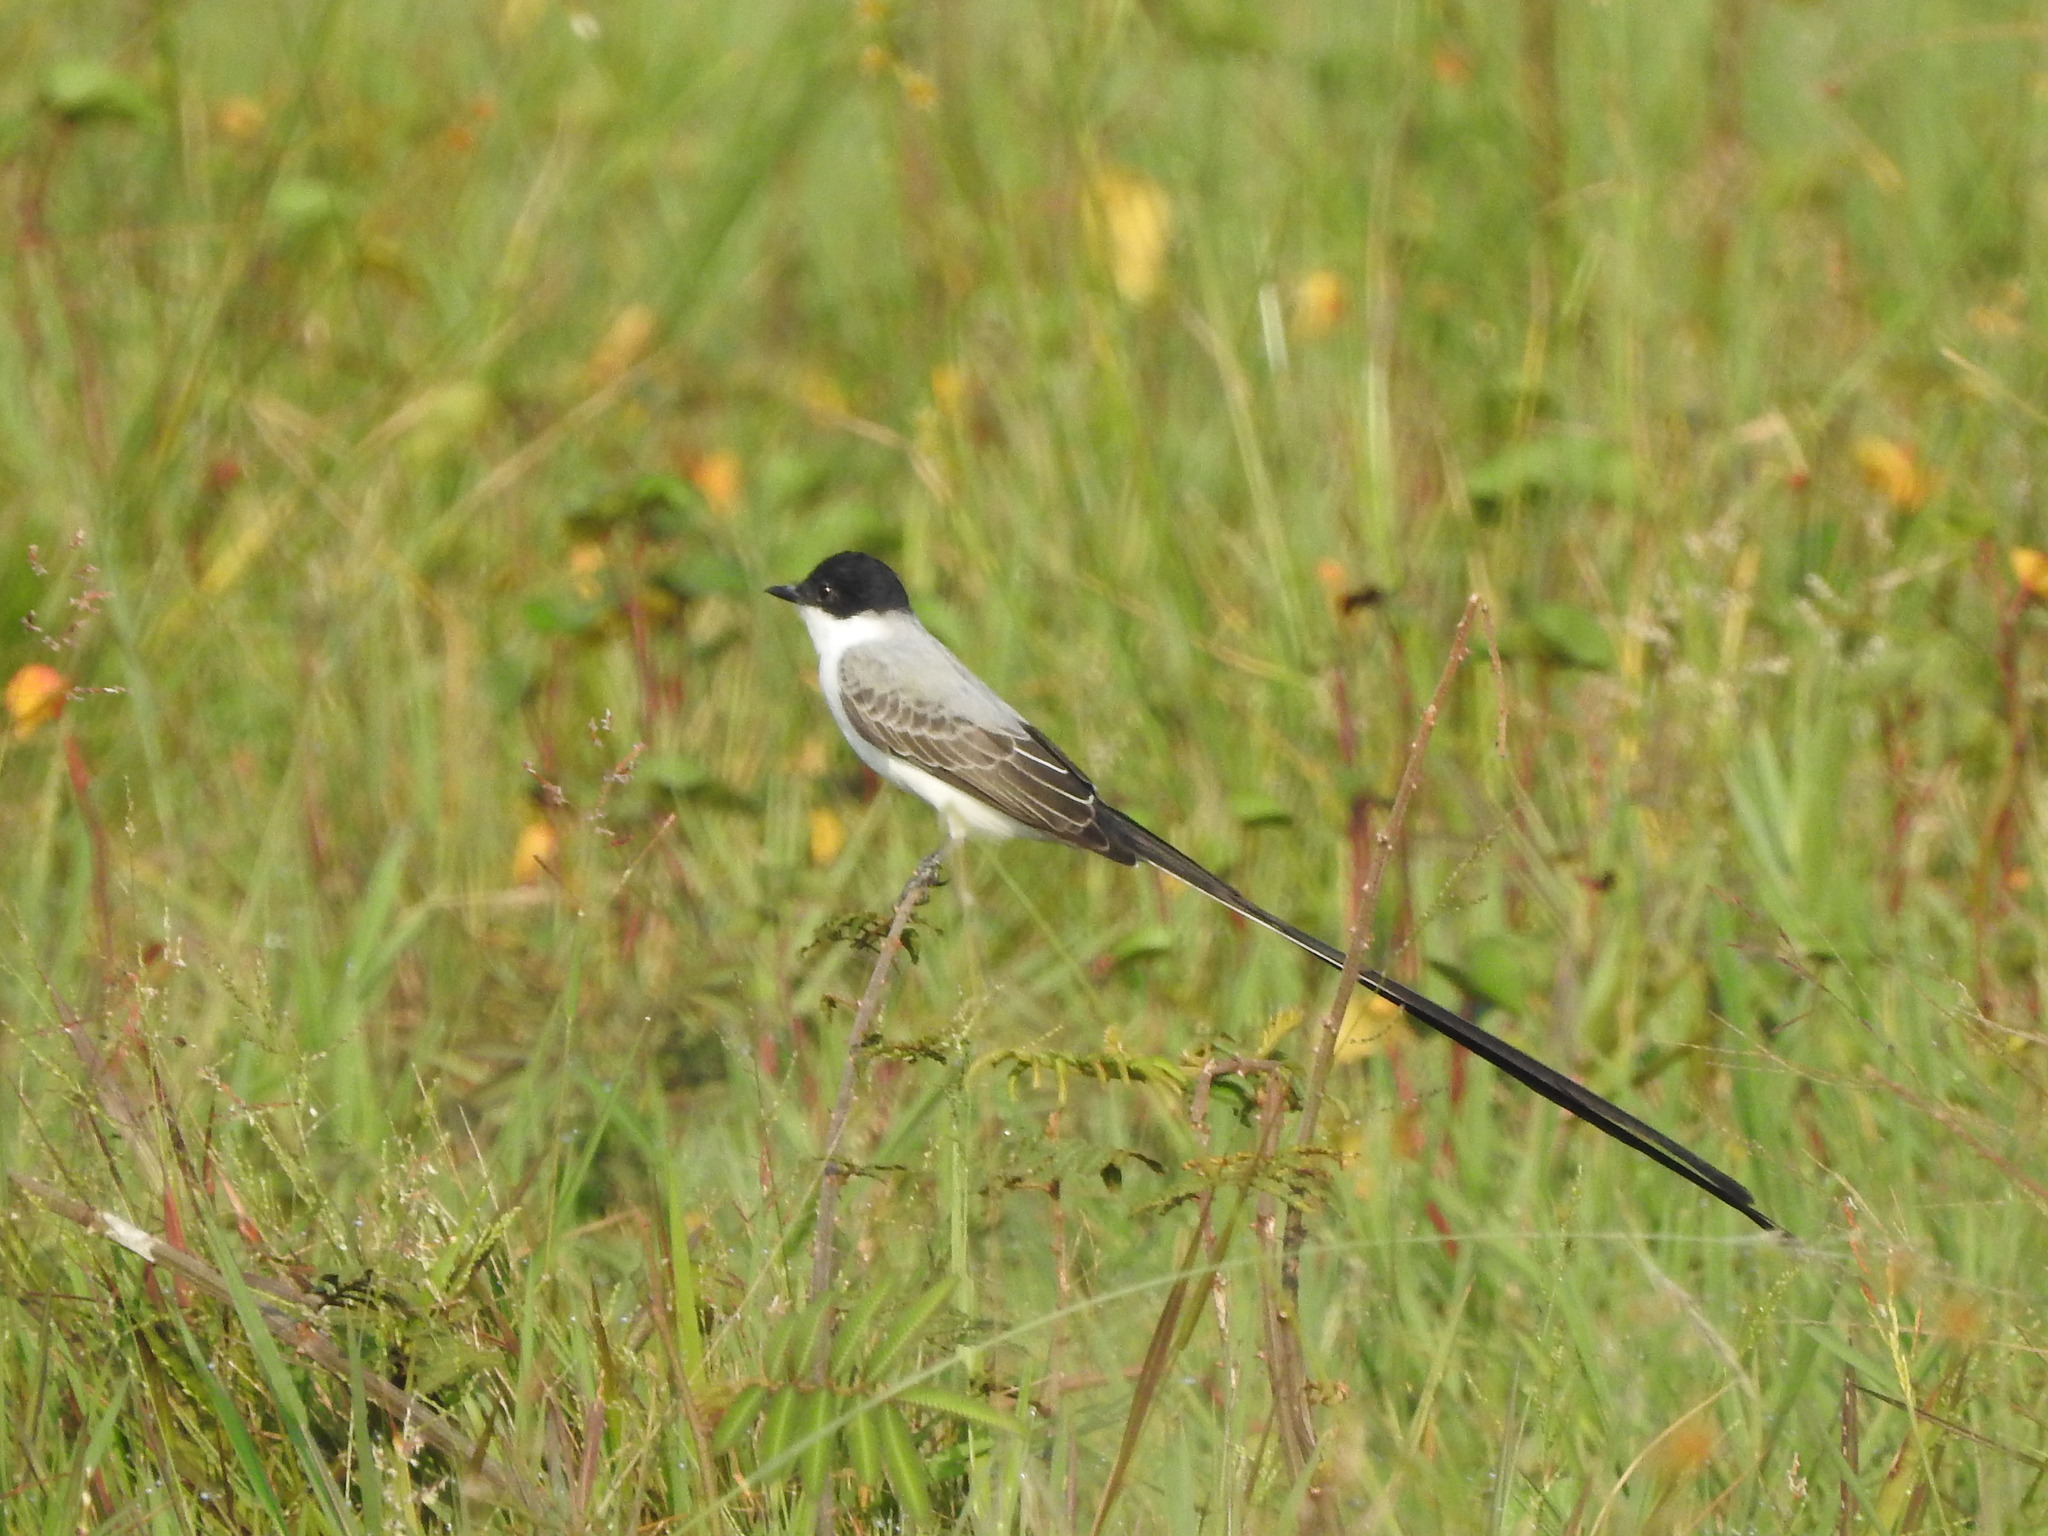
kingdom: Animalia
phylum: Chordata
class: Aves
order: Passeriformes
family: Tyrannidae
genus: Tyrannus
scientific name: Tyrannus savana
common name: Fork-tailed flycatcher
